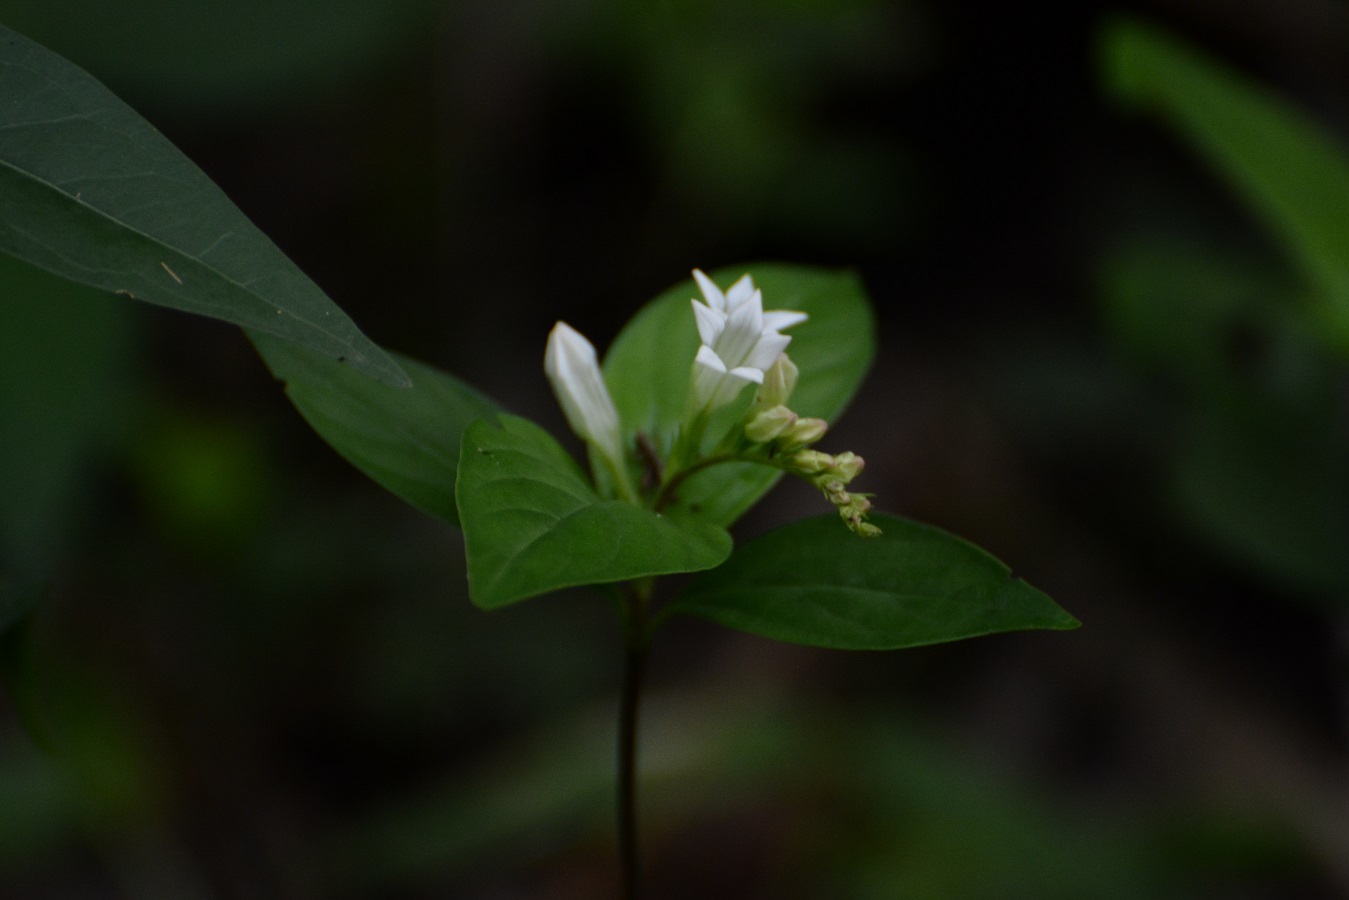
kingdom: Plantae
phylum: Tracheophyta
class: Magnoliopsida
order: Gentianales
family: Loganiaceae
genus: Spigelia
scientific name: Spigelia humboldtiana
